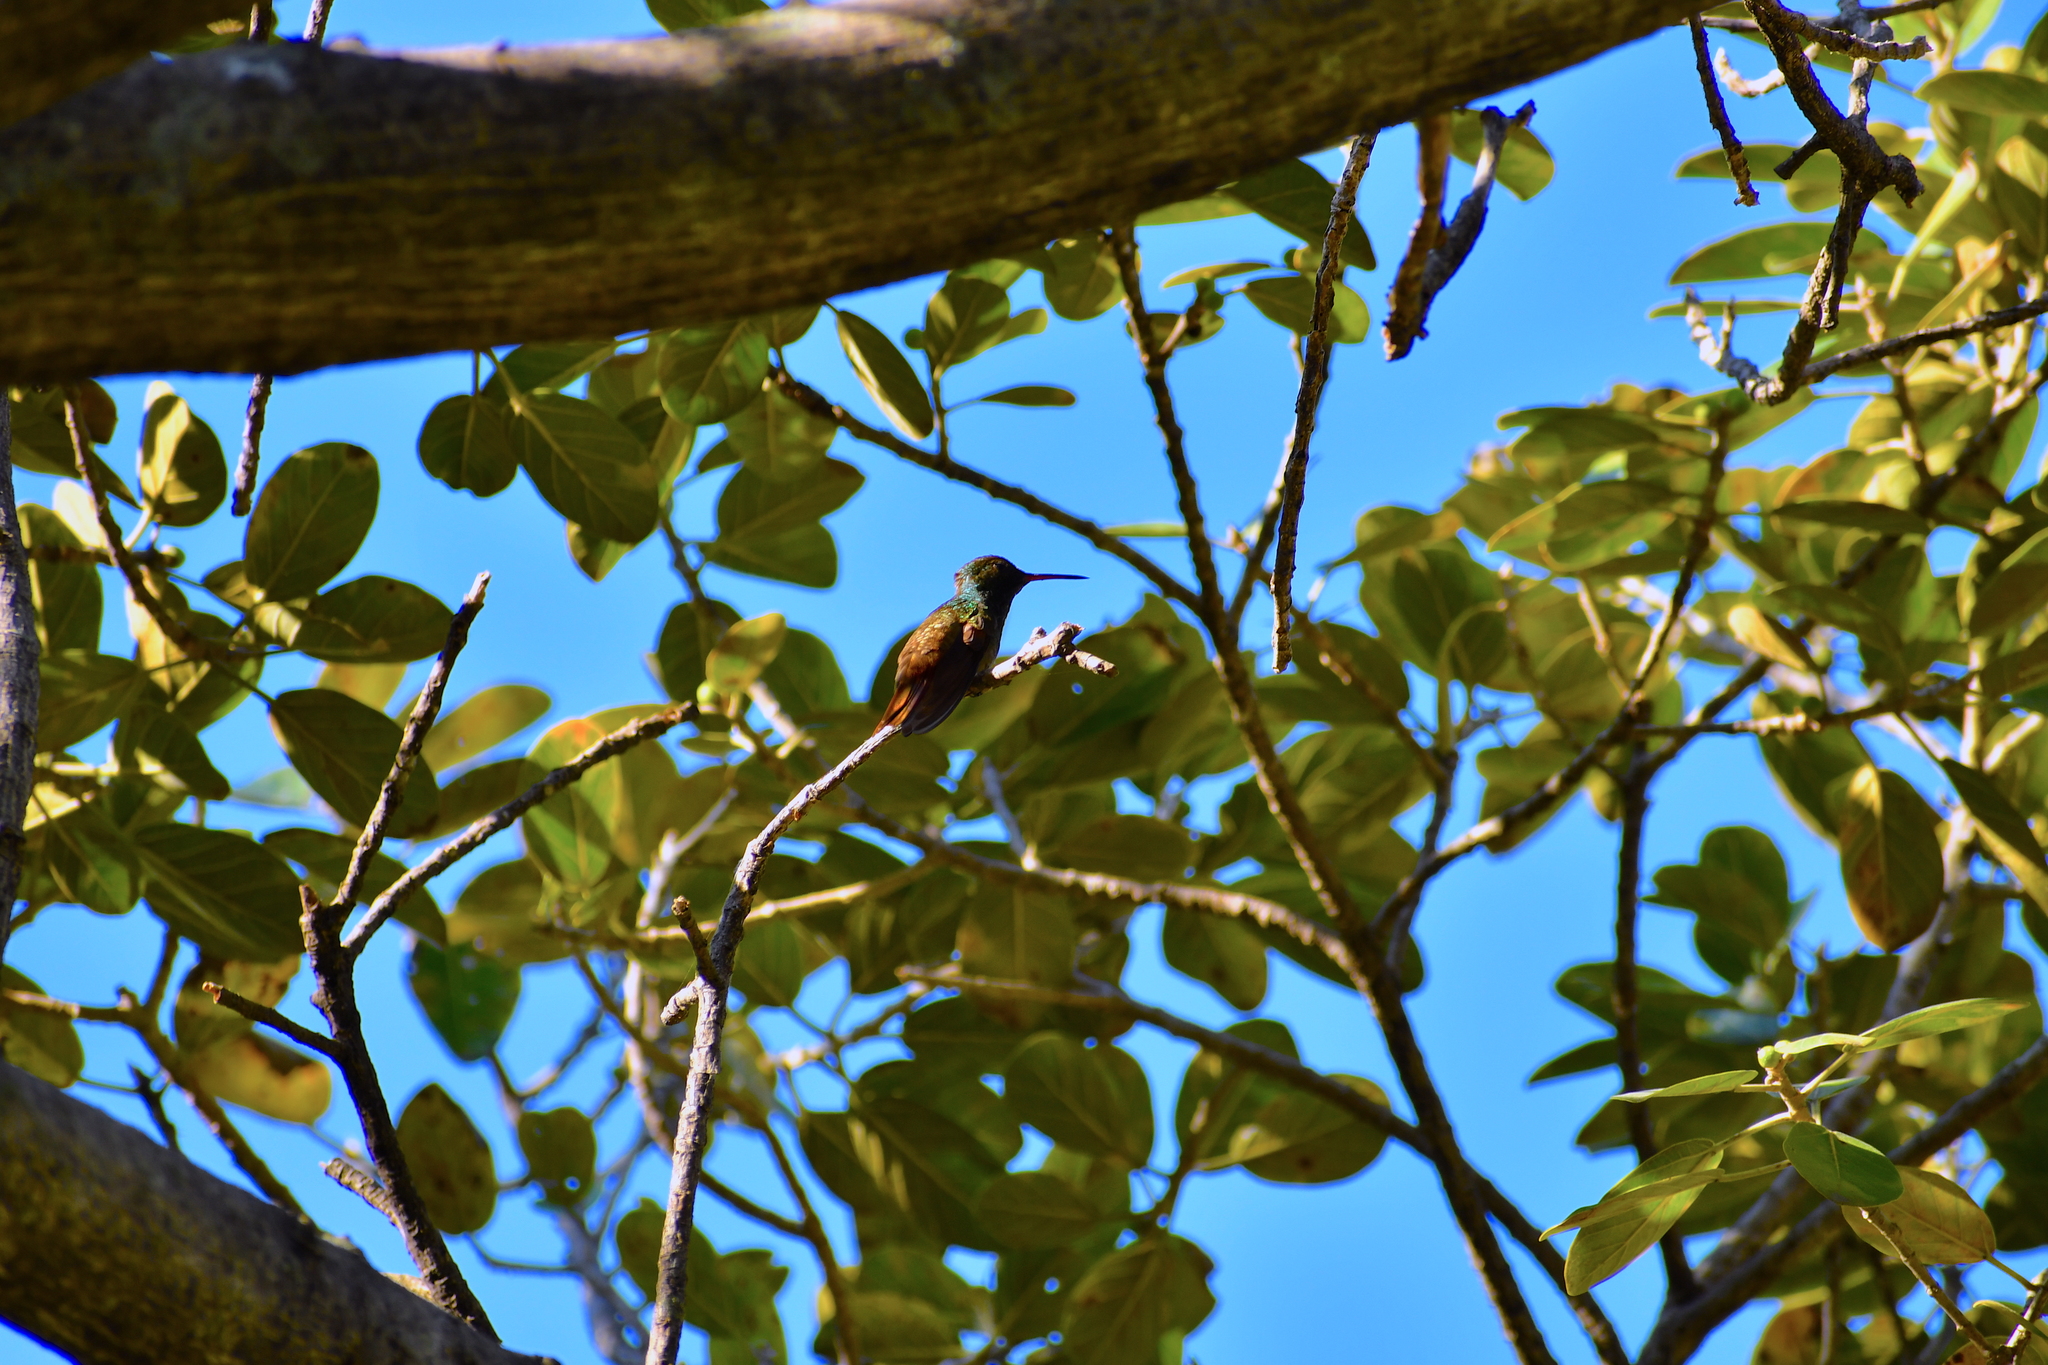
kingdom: Animalia
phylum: Chordata
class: Aves
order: Apodiformes
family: Trochilidae
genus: Saucerottia
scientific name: Saucerottia beryllina
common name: Berylline hummingbird
